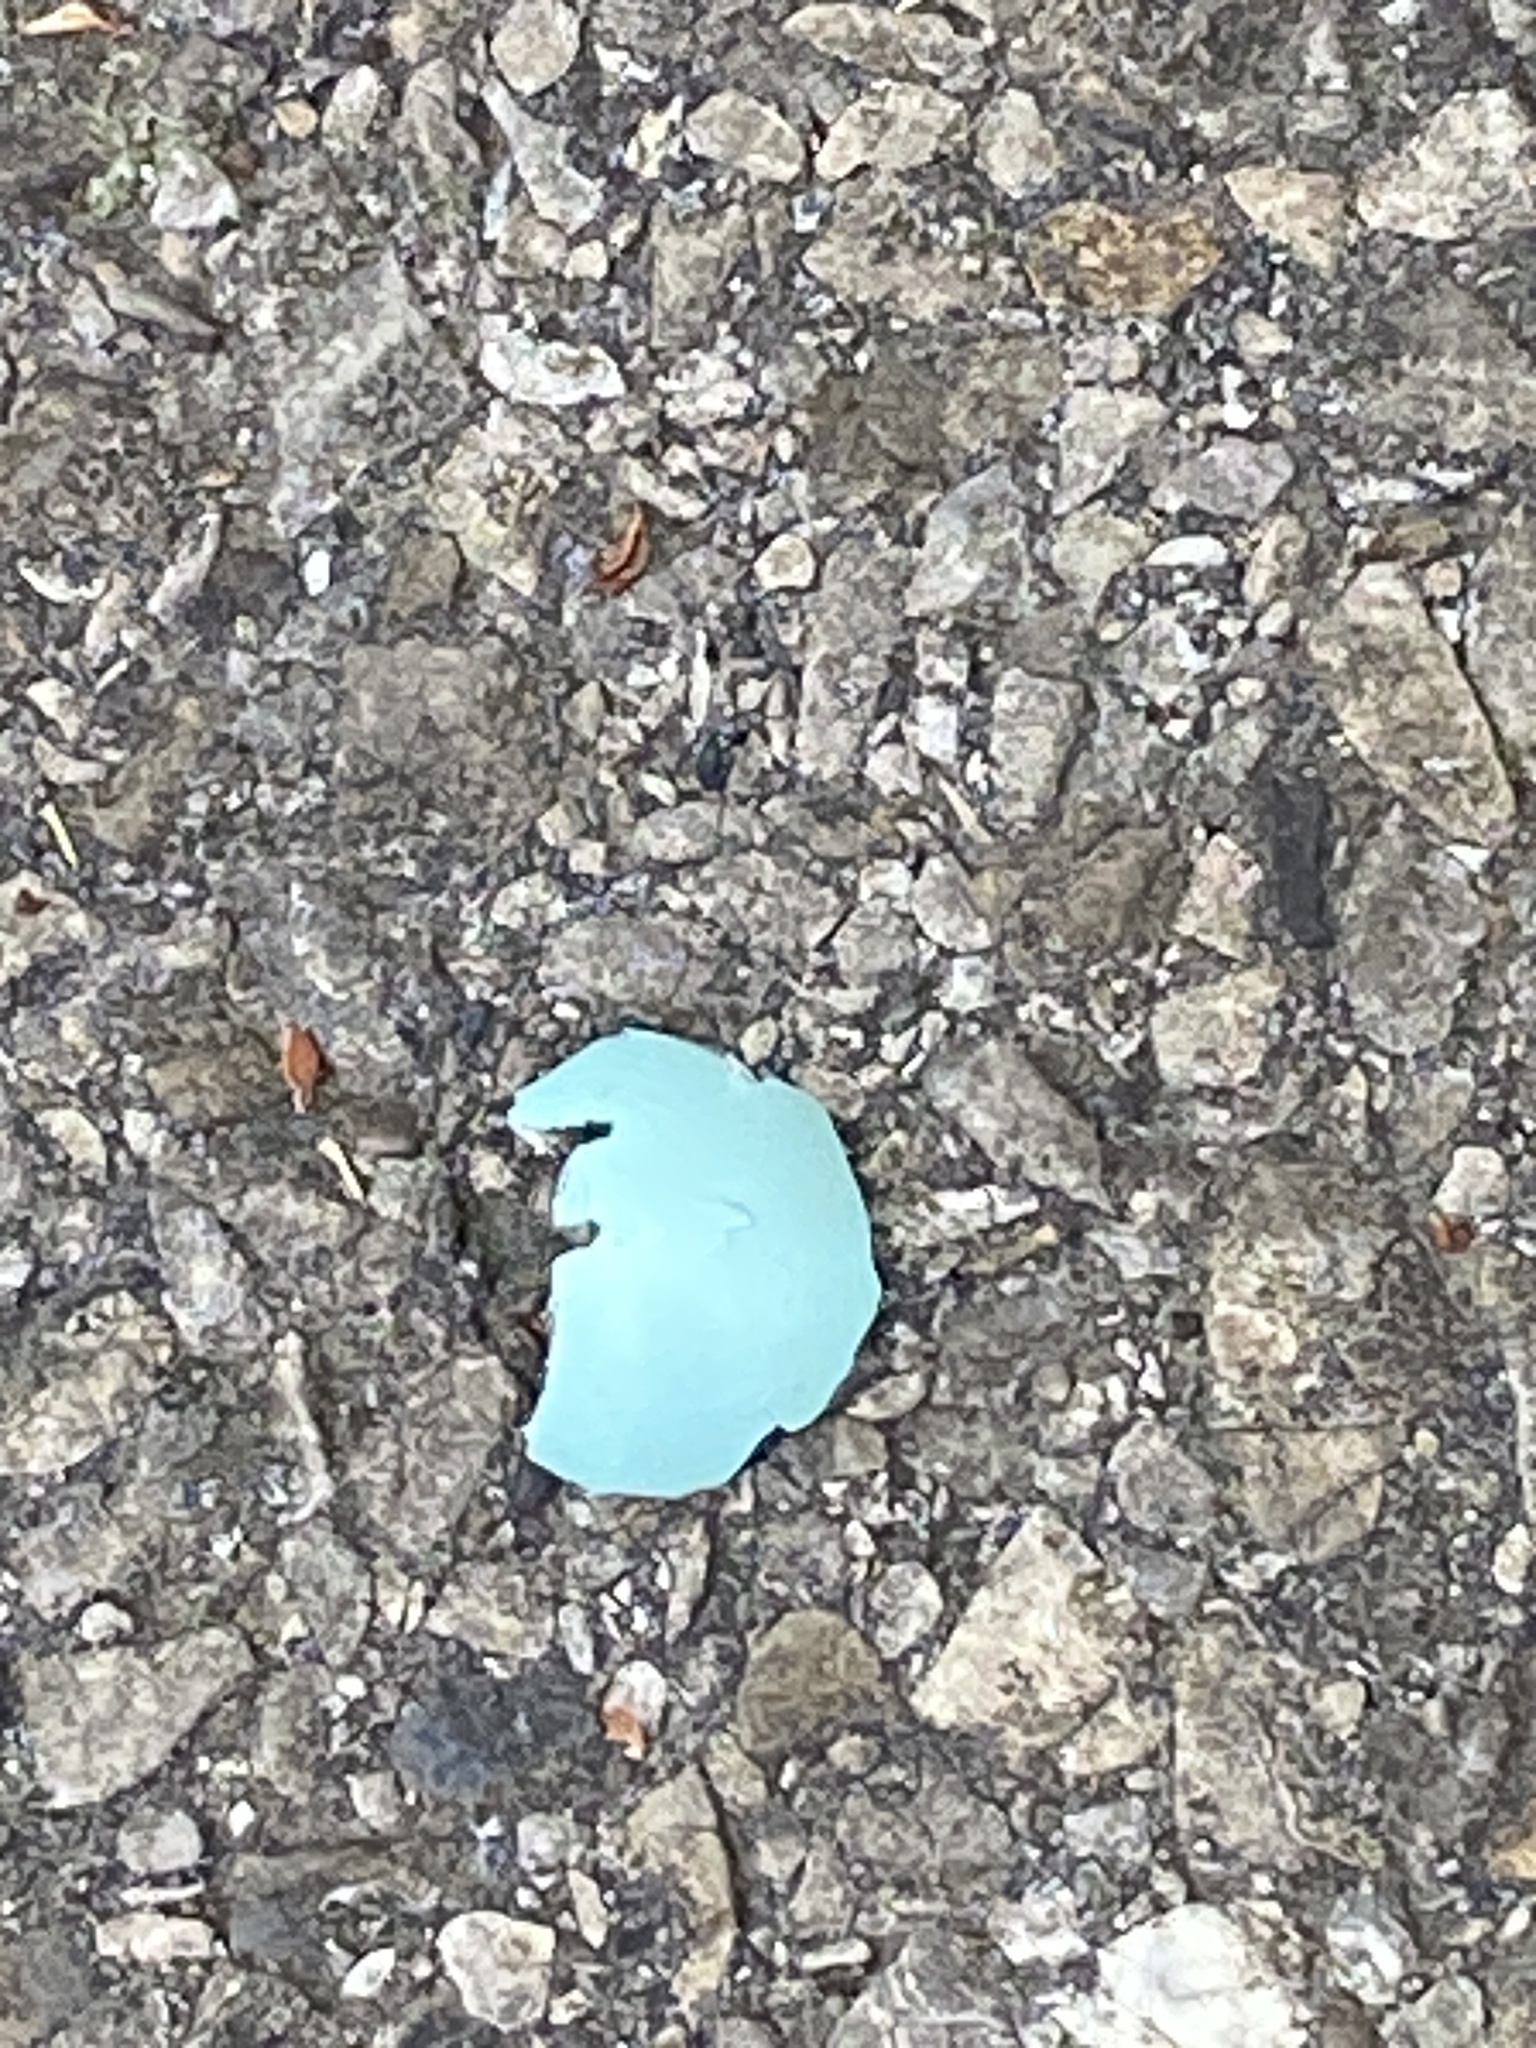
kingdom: Animalia
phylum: Chordata
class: Aves
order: Passeriformes
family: Turdidae
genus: Turdus
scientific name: Turdus migratorius
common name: American robin
